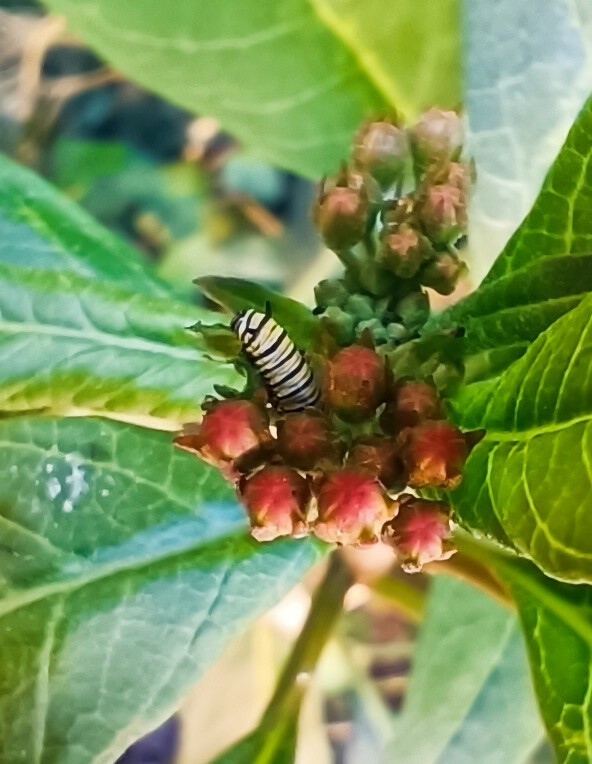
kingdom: Animalia
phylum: Arthropoda
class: Insecta
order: Lepidoptera
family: Nymphalidae
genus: Danaus
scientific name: Danaus plexippus
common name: Monarch
